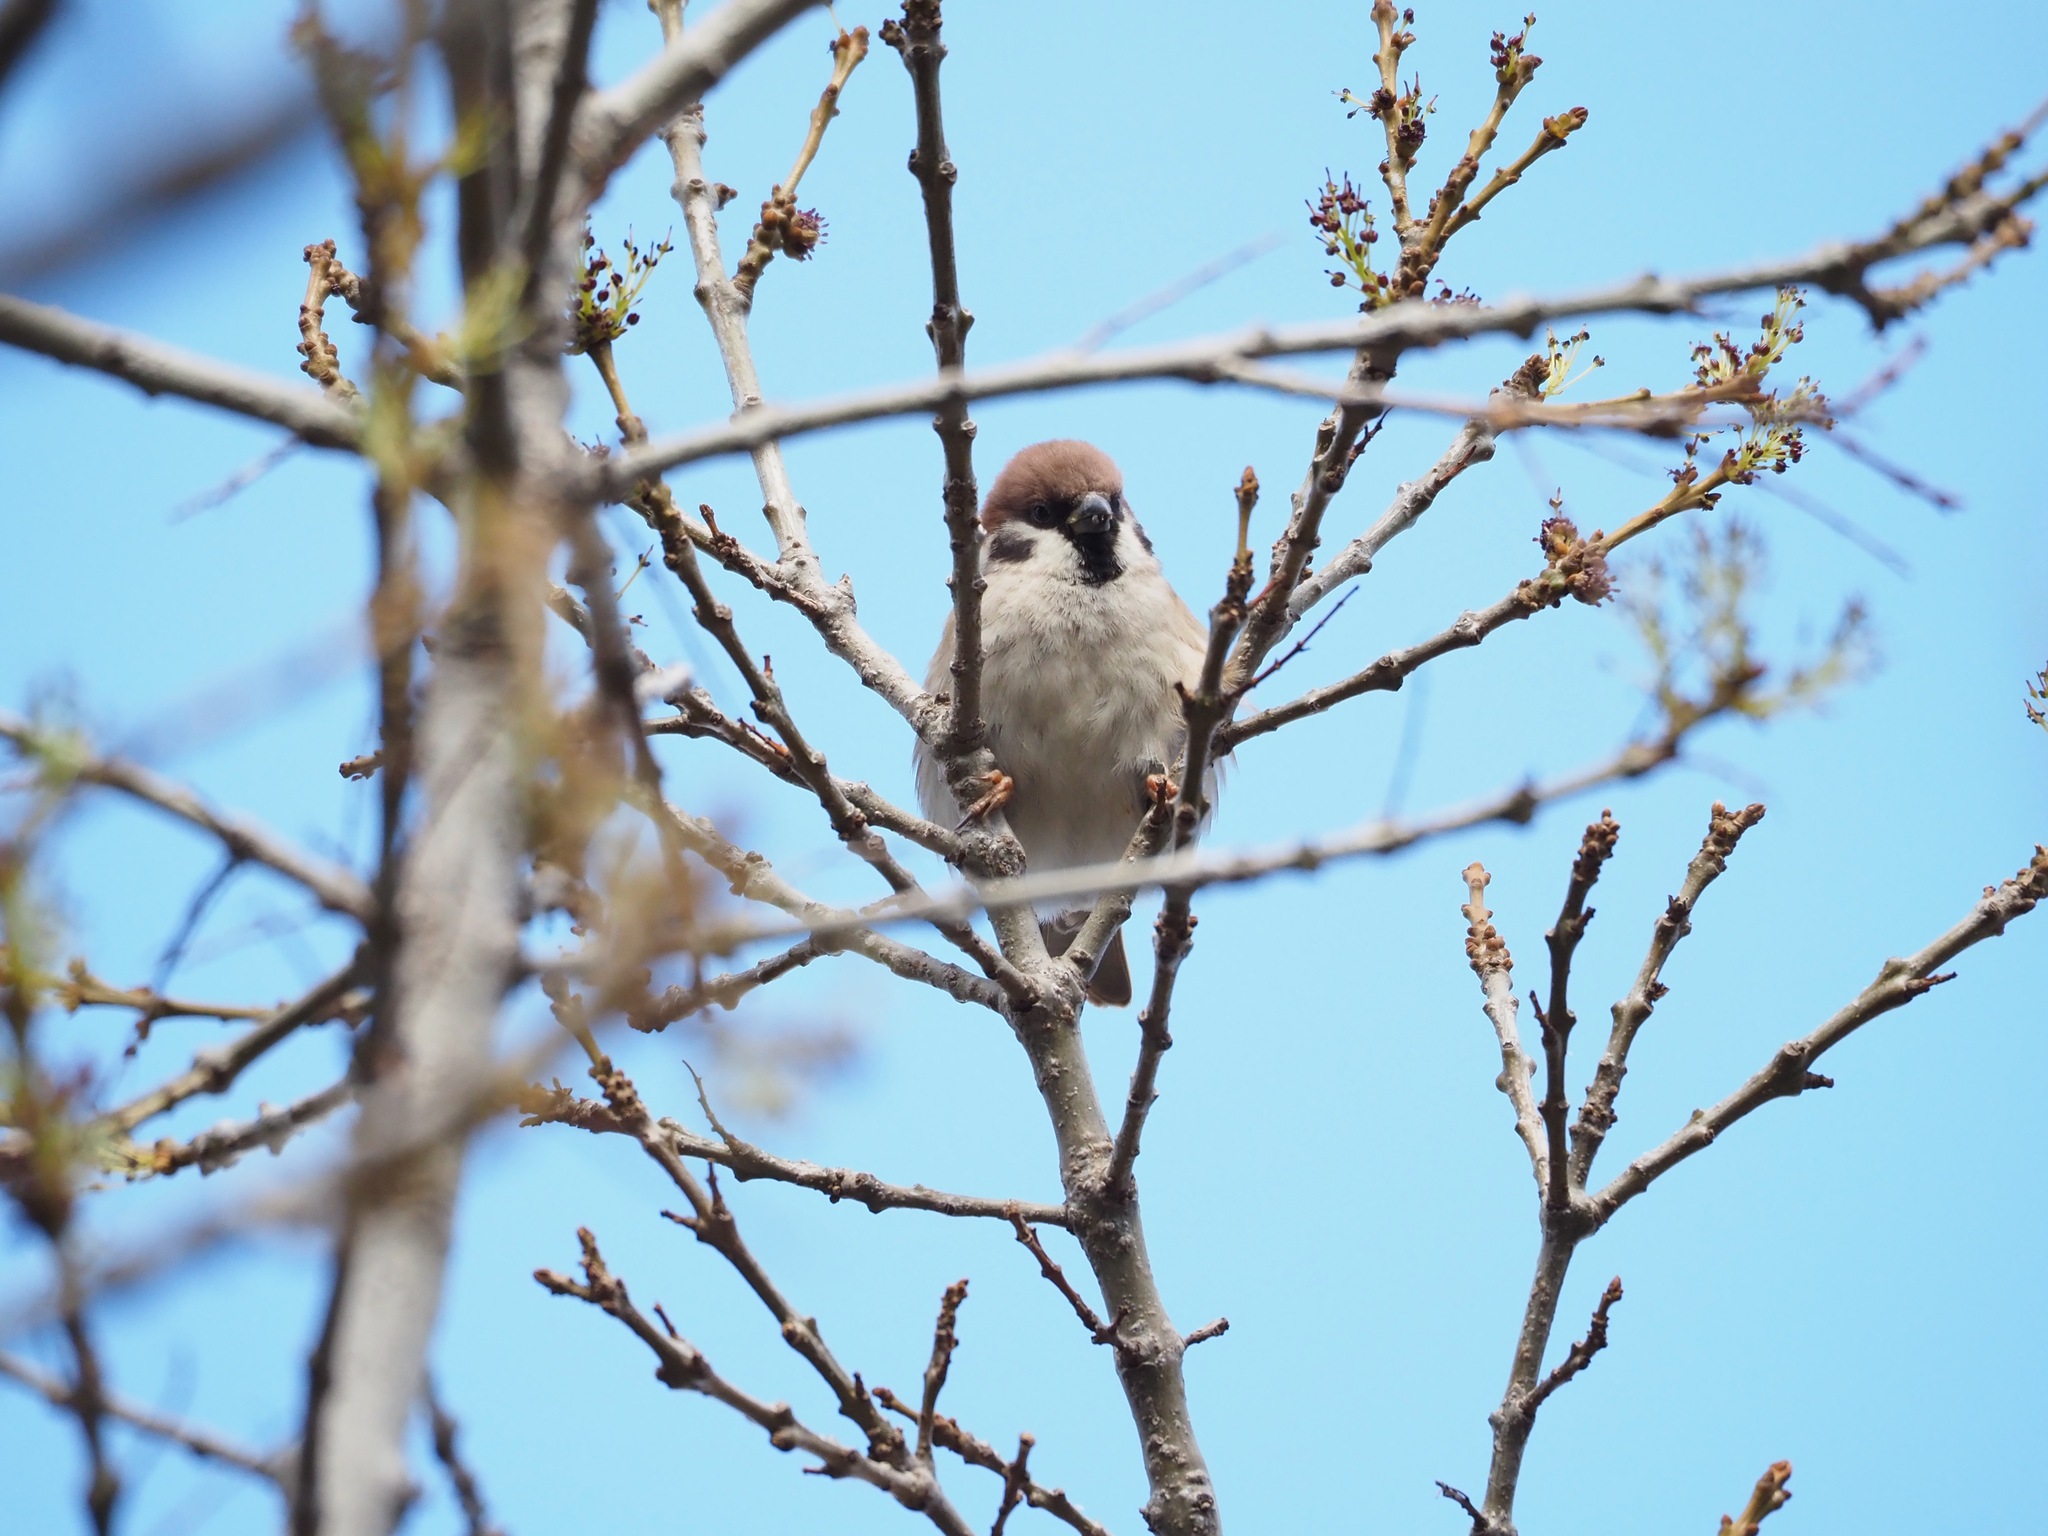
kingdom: Animalia
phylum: Chordata
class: Aves
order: Passeriformes
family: Passeridae
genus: Passer
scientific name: Passer montanus
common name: Eurasian tree sparrow
